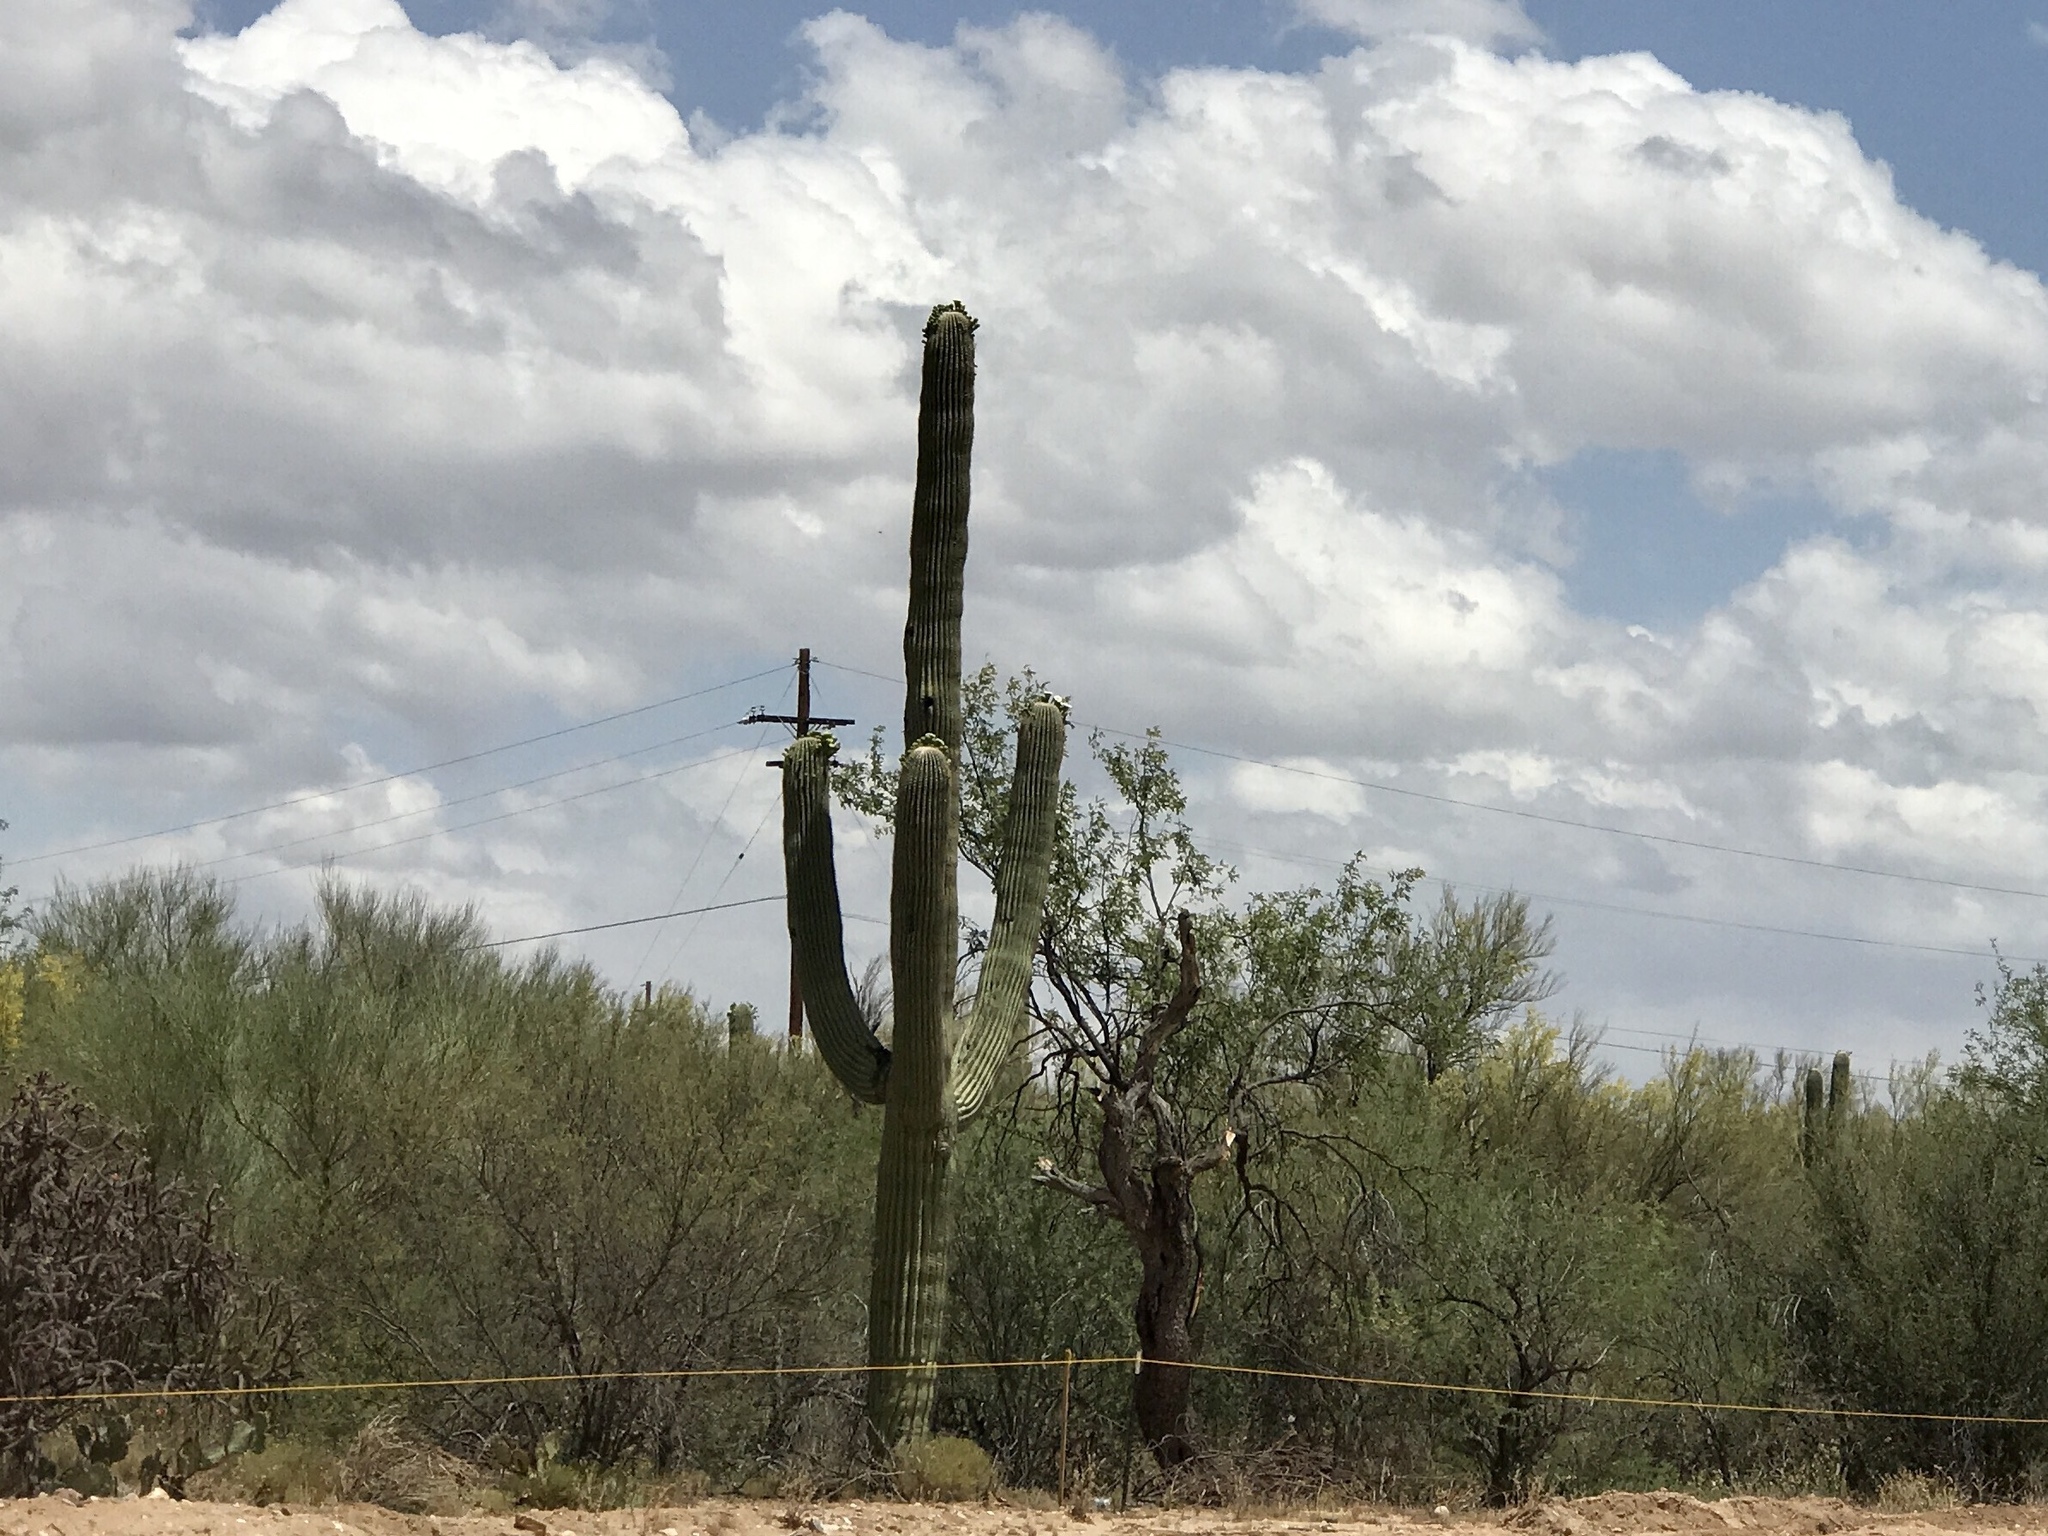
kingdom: Plantae
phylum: Tracheophyta
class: Magnoliopsida
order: Caryophyllales
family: Cactaceae
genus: Carnegiea
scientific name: Carnegiea gigantea
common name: Saguaro
